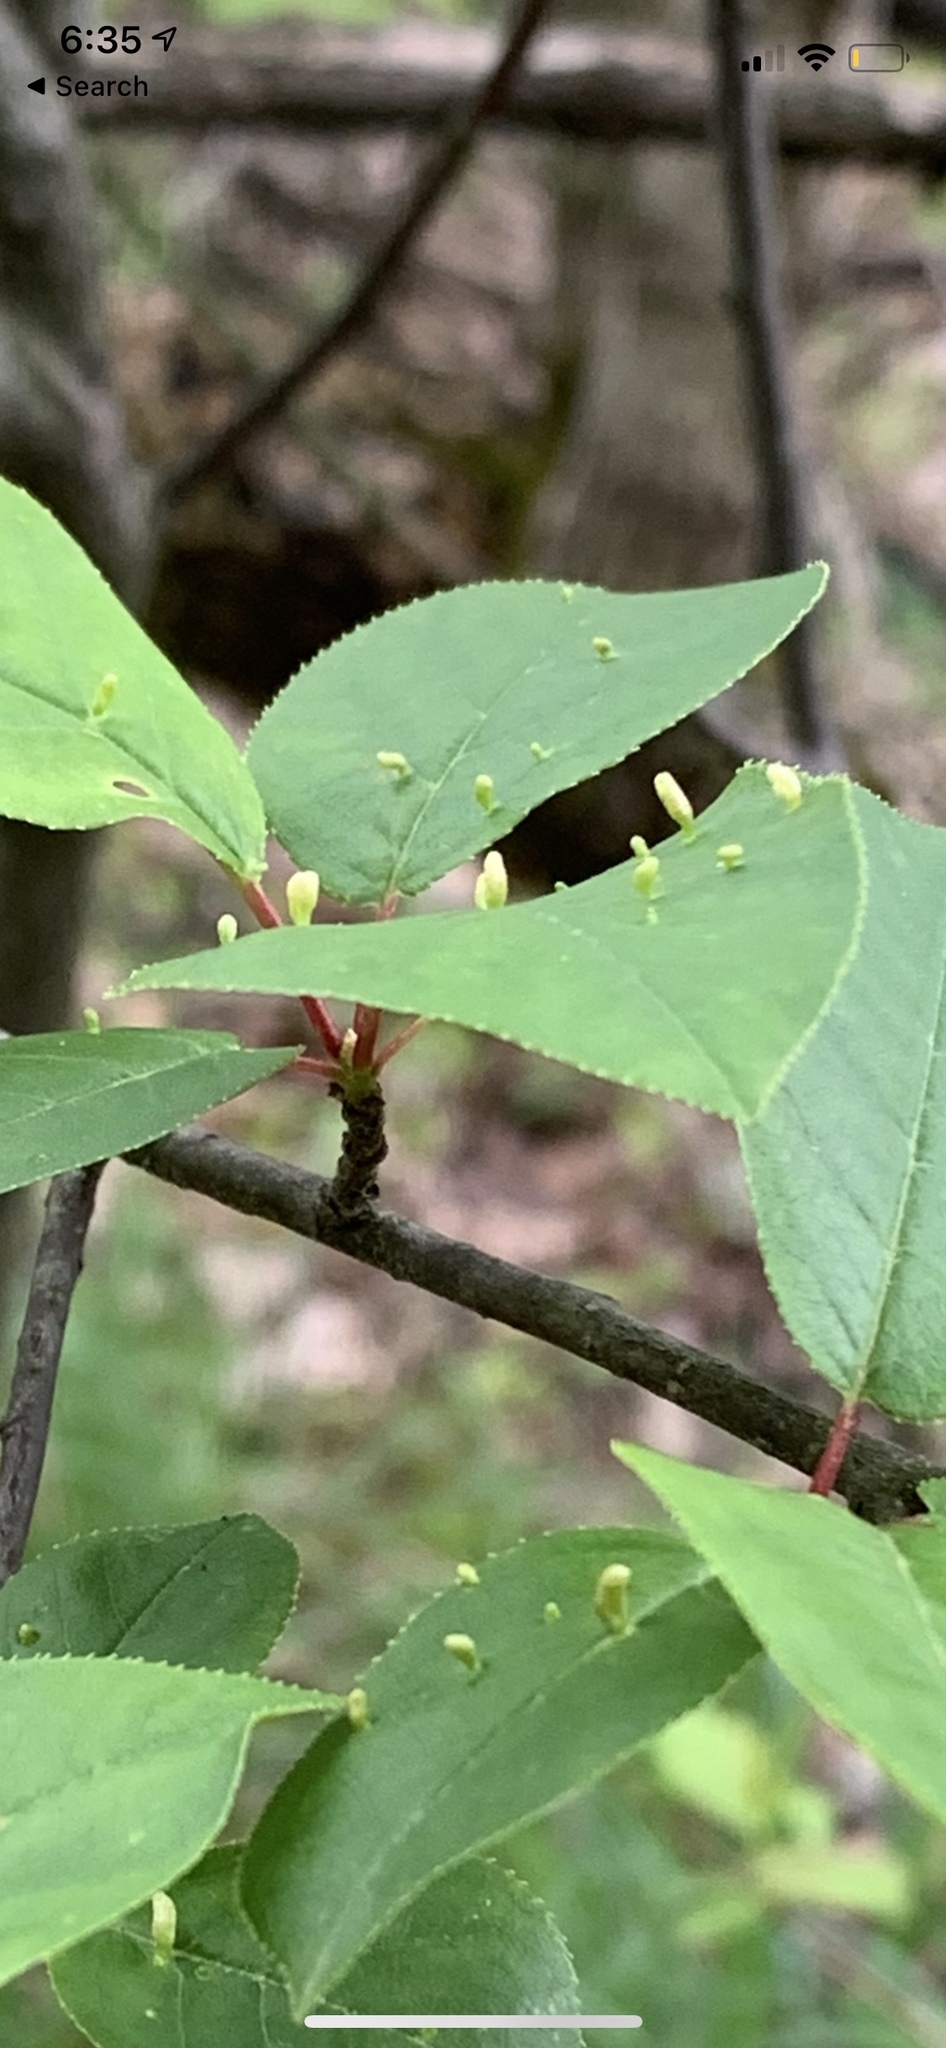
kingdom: Animalia
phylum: Arthropoda
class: Arachnida
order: Trombidiformes
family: Eriophyidae
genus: Eriophyes
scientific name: Eriophyes emarginatae
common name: Plum leaf gall mite
